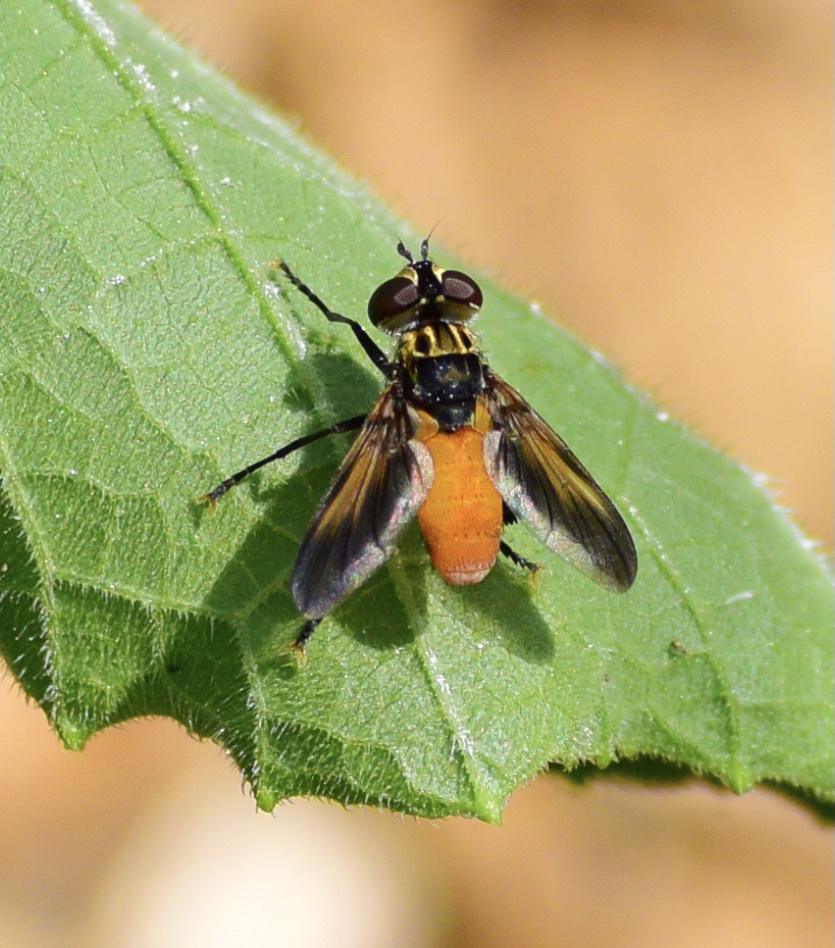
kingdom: Animalia
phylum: Arthropoda
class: Insecta
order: Diptera
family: Tachinidae
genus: Trichopoda
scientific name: Trichopoda pennipes
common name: Tachinid fly
